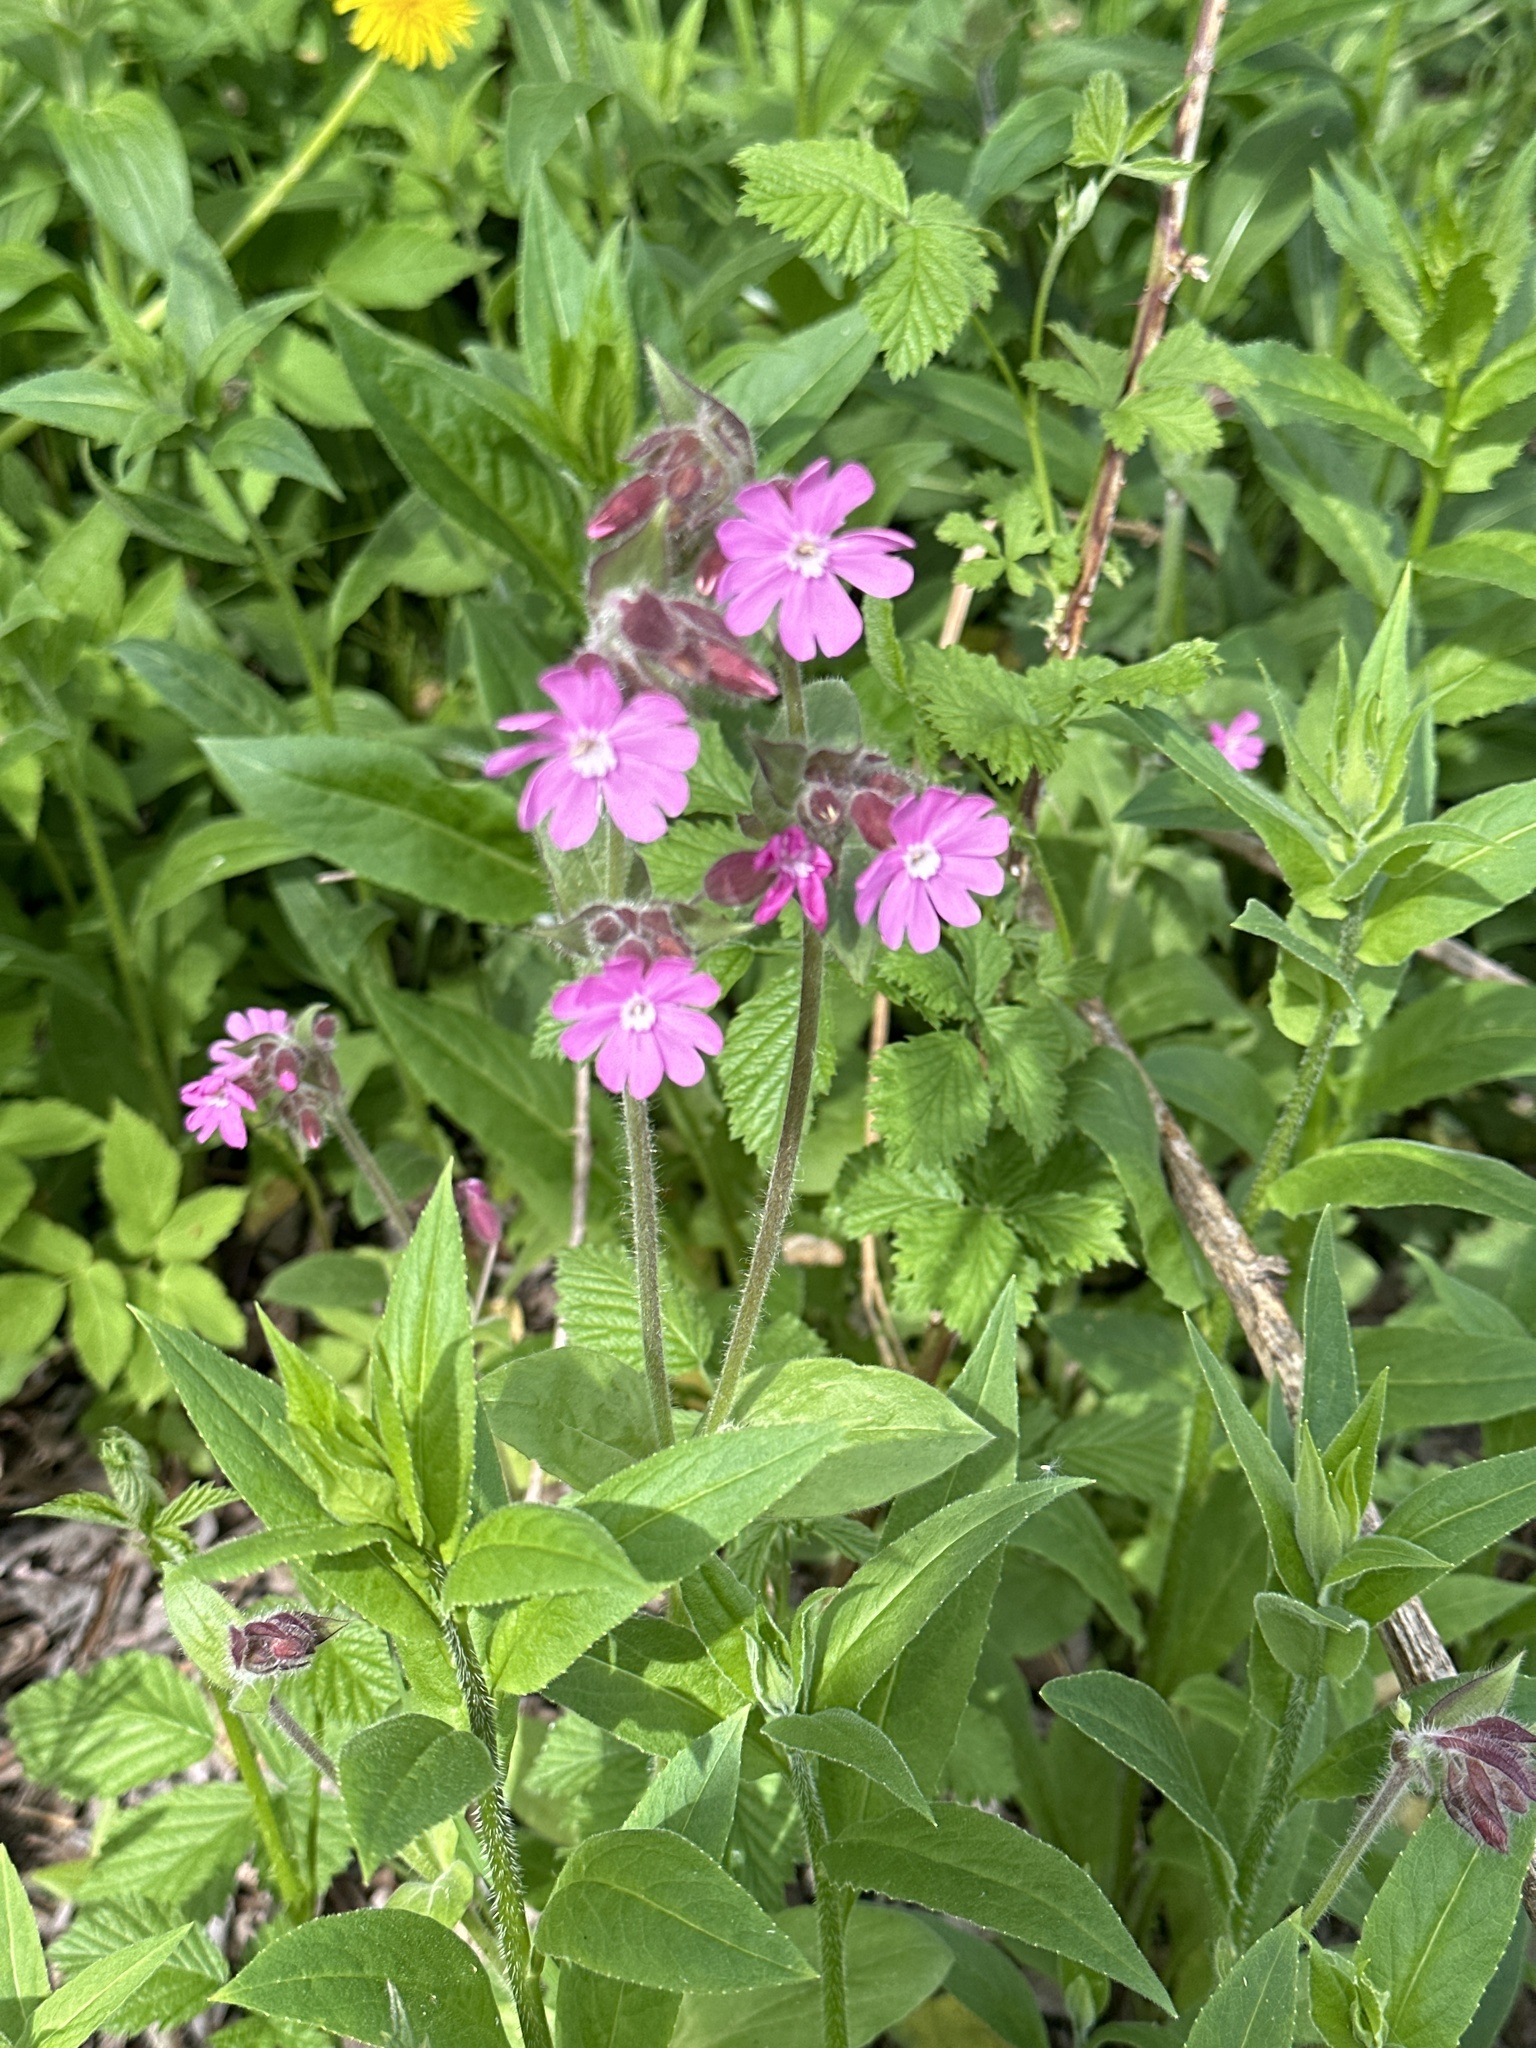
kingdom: Plantae
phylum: Tracheophyta
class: Magnoliopsida
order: Caryophyllales
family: Caryophyllaceae
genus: Silene
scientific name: Silene dioica
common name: Red campion
